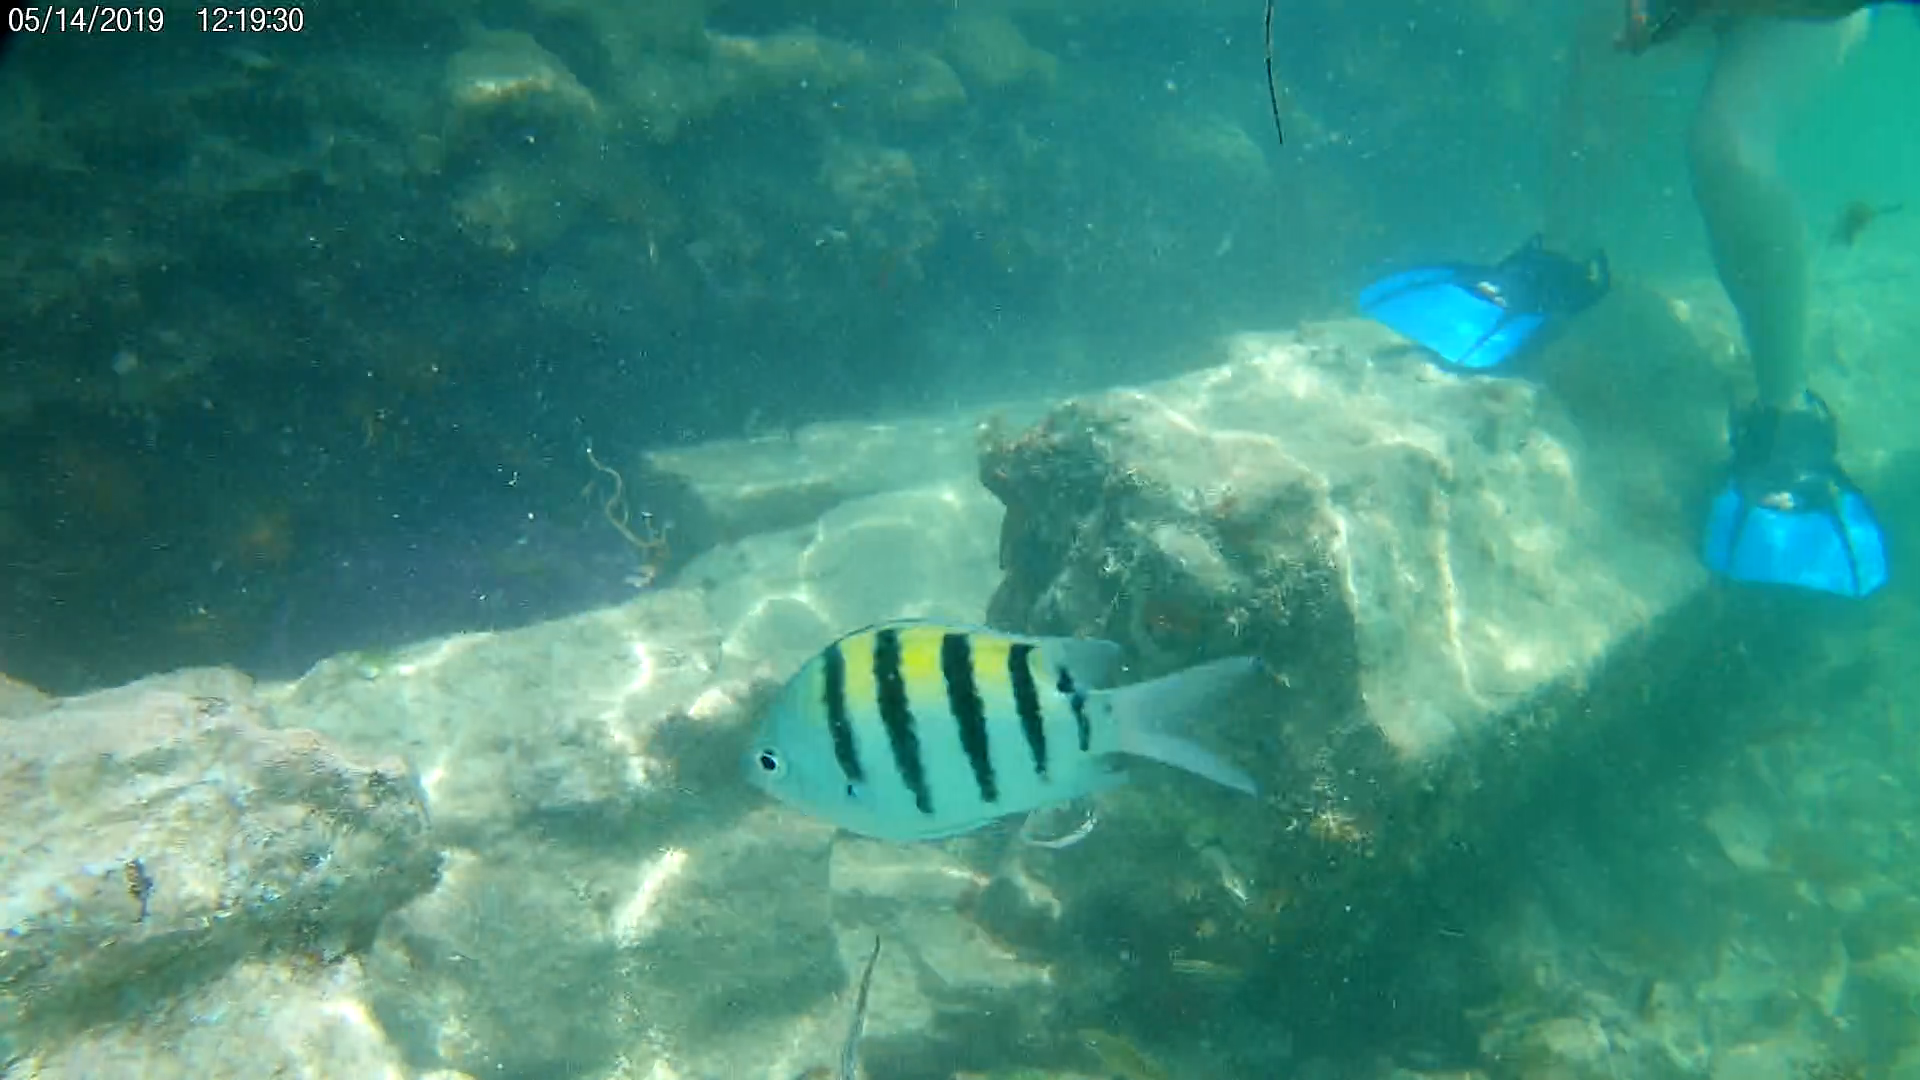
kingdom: Animalia
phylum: Chordata
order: Perciformes
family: Pomacentridae
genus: Abudefduf
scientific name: Abudefduf saxatilis
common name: Sergeant major
